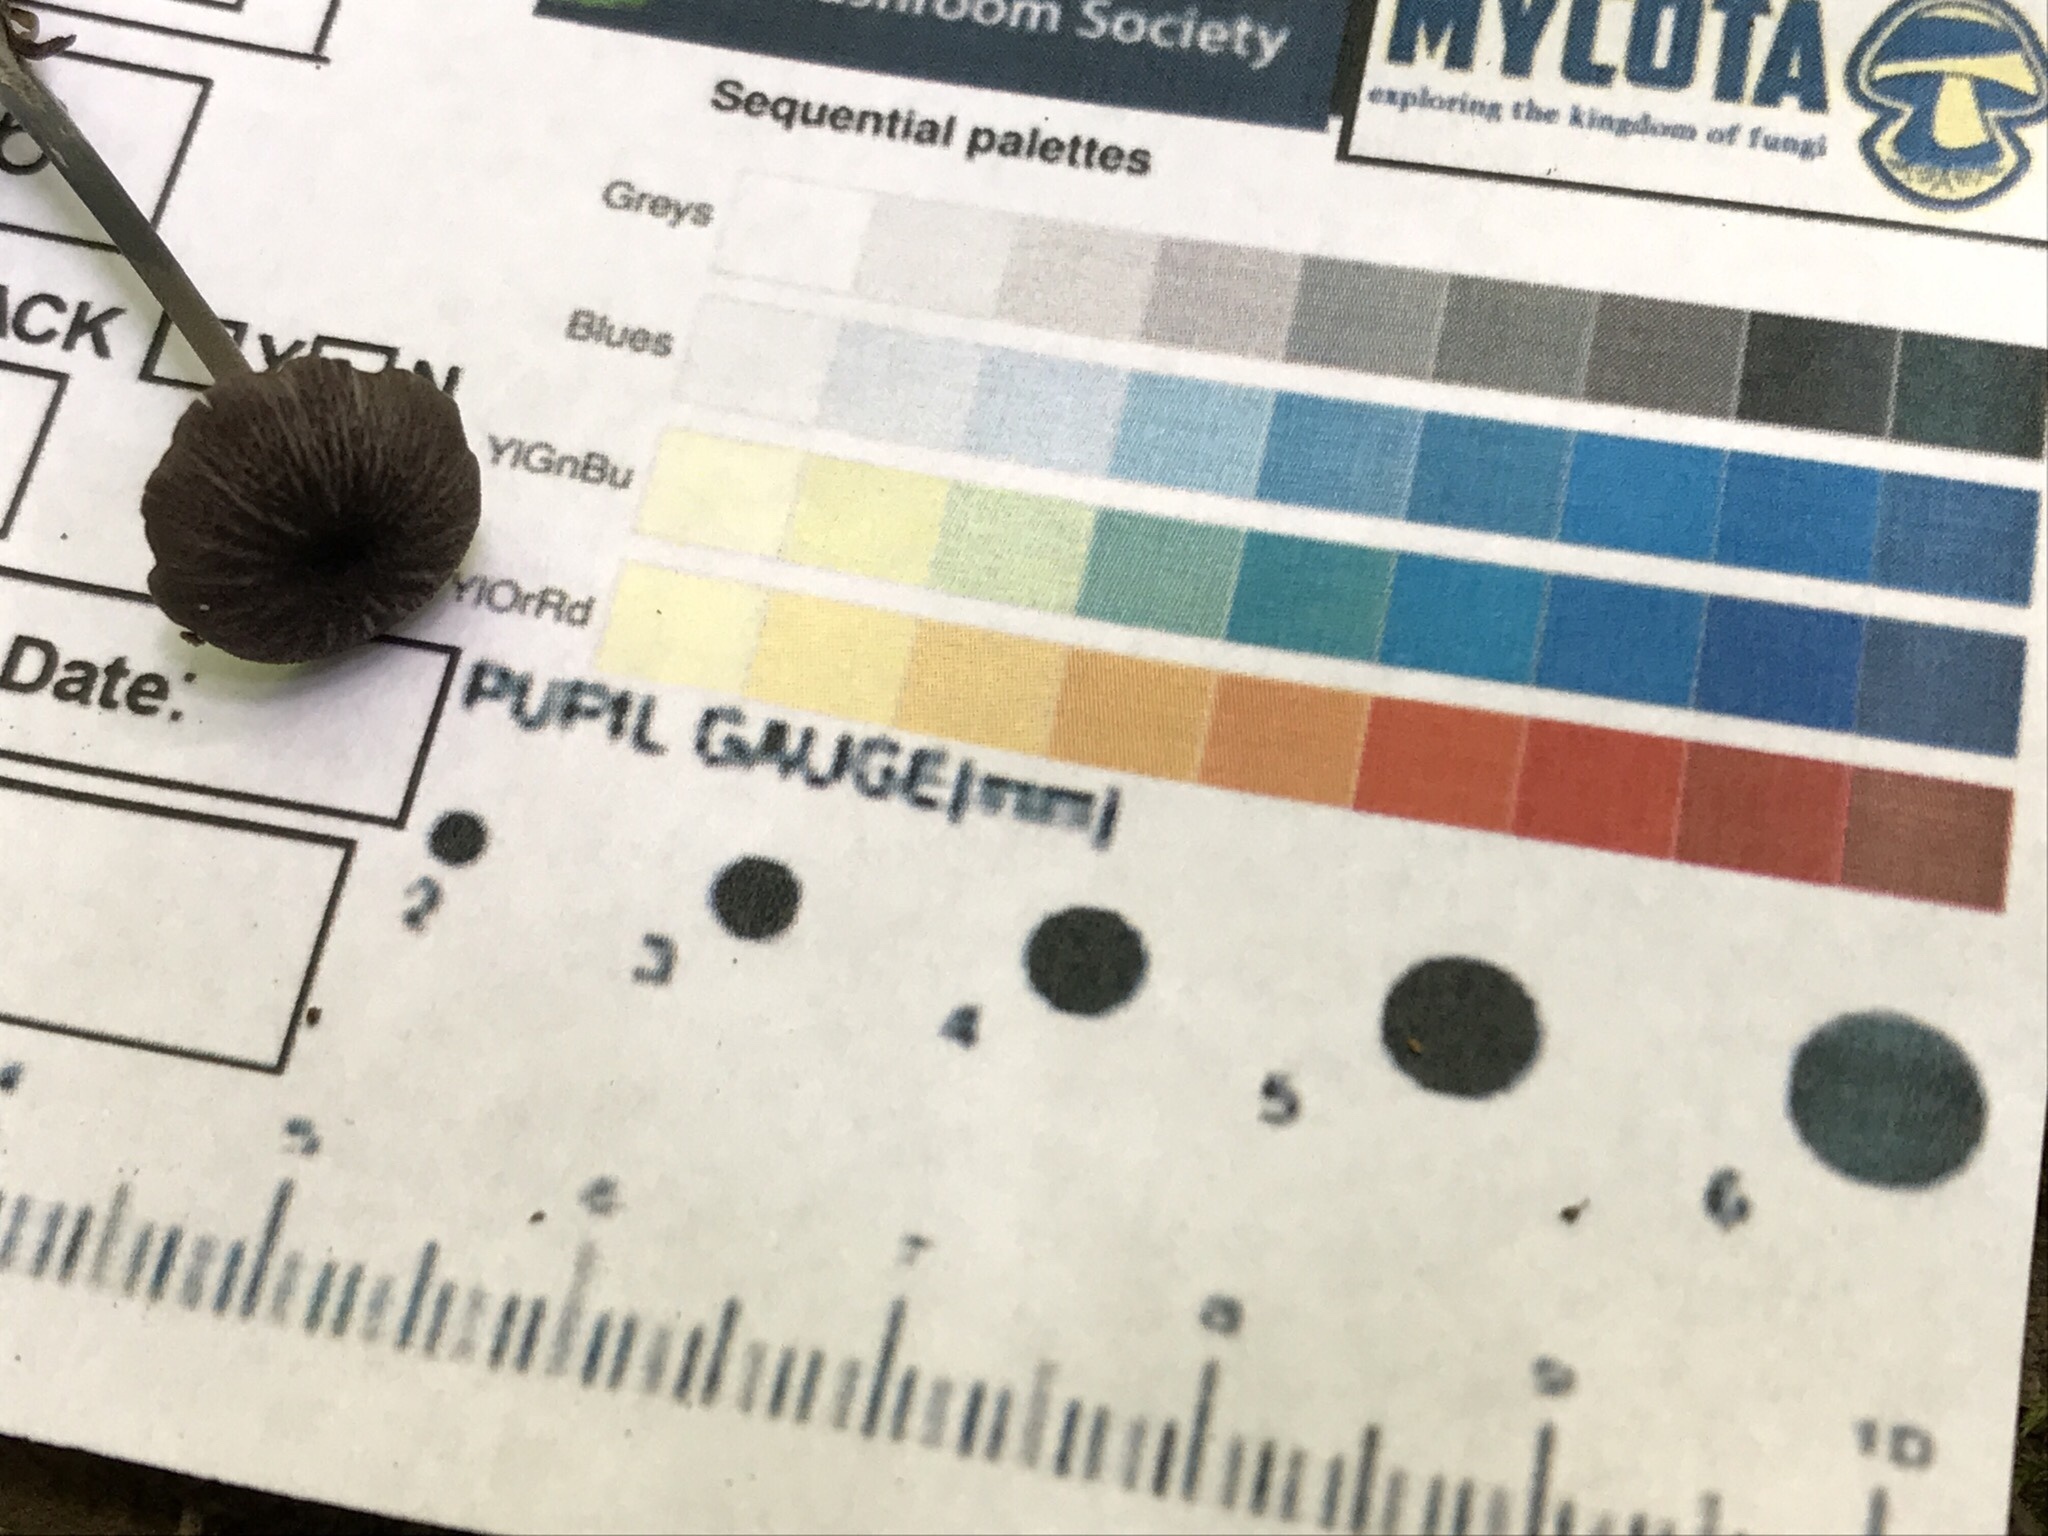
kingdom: Fungi
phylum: Basidiomycota
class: Agaricomycetes
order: Agaricales
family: Entolomataceae
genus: Entocybe
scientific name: Entocybe nitida
